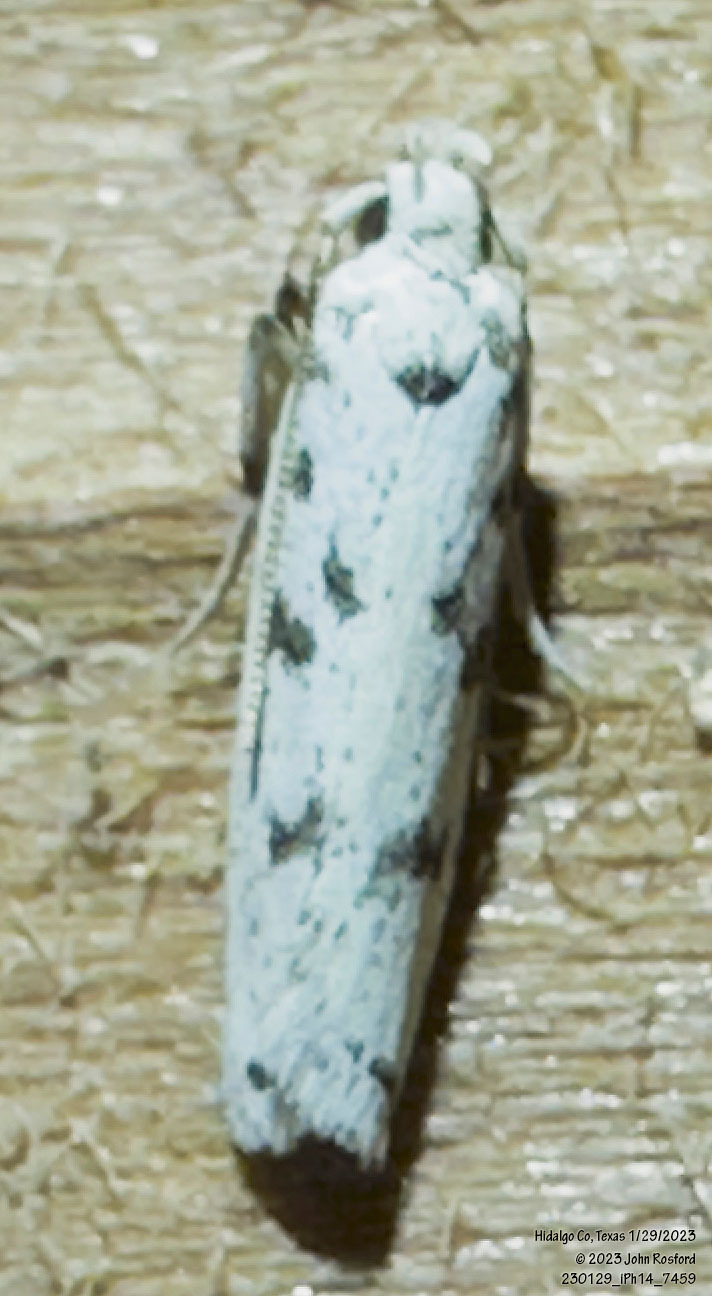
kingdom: Animalia
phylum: Arthropoda
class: Insecta
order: Lepidoptera
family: Autostichidae
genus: Glyphidocera
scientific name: Glyphidocera lactiflosella
